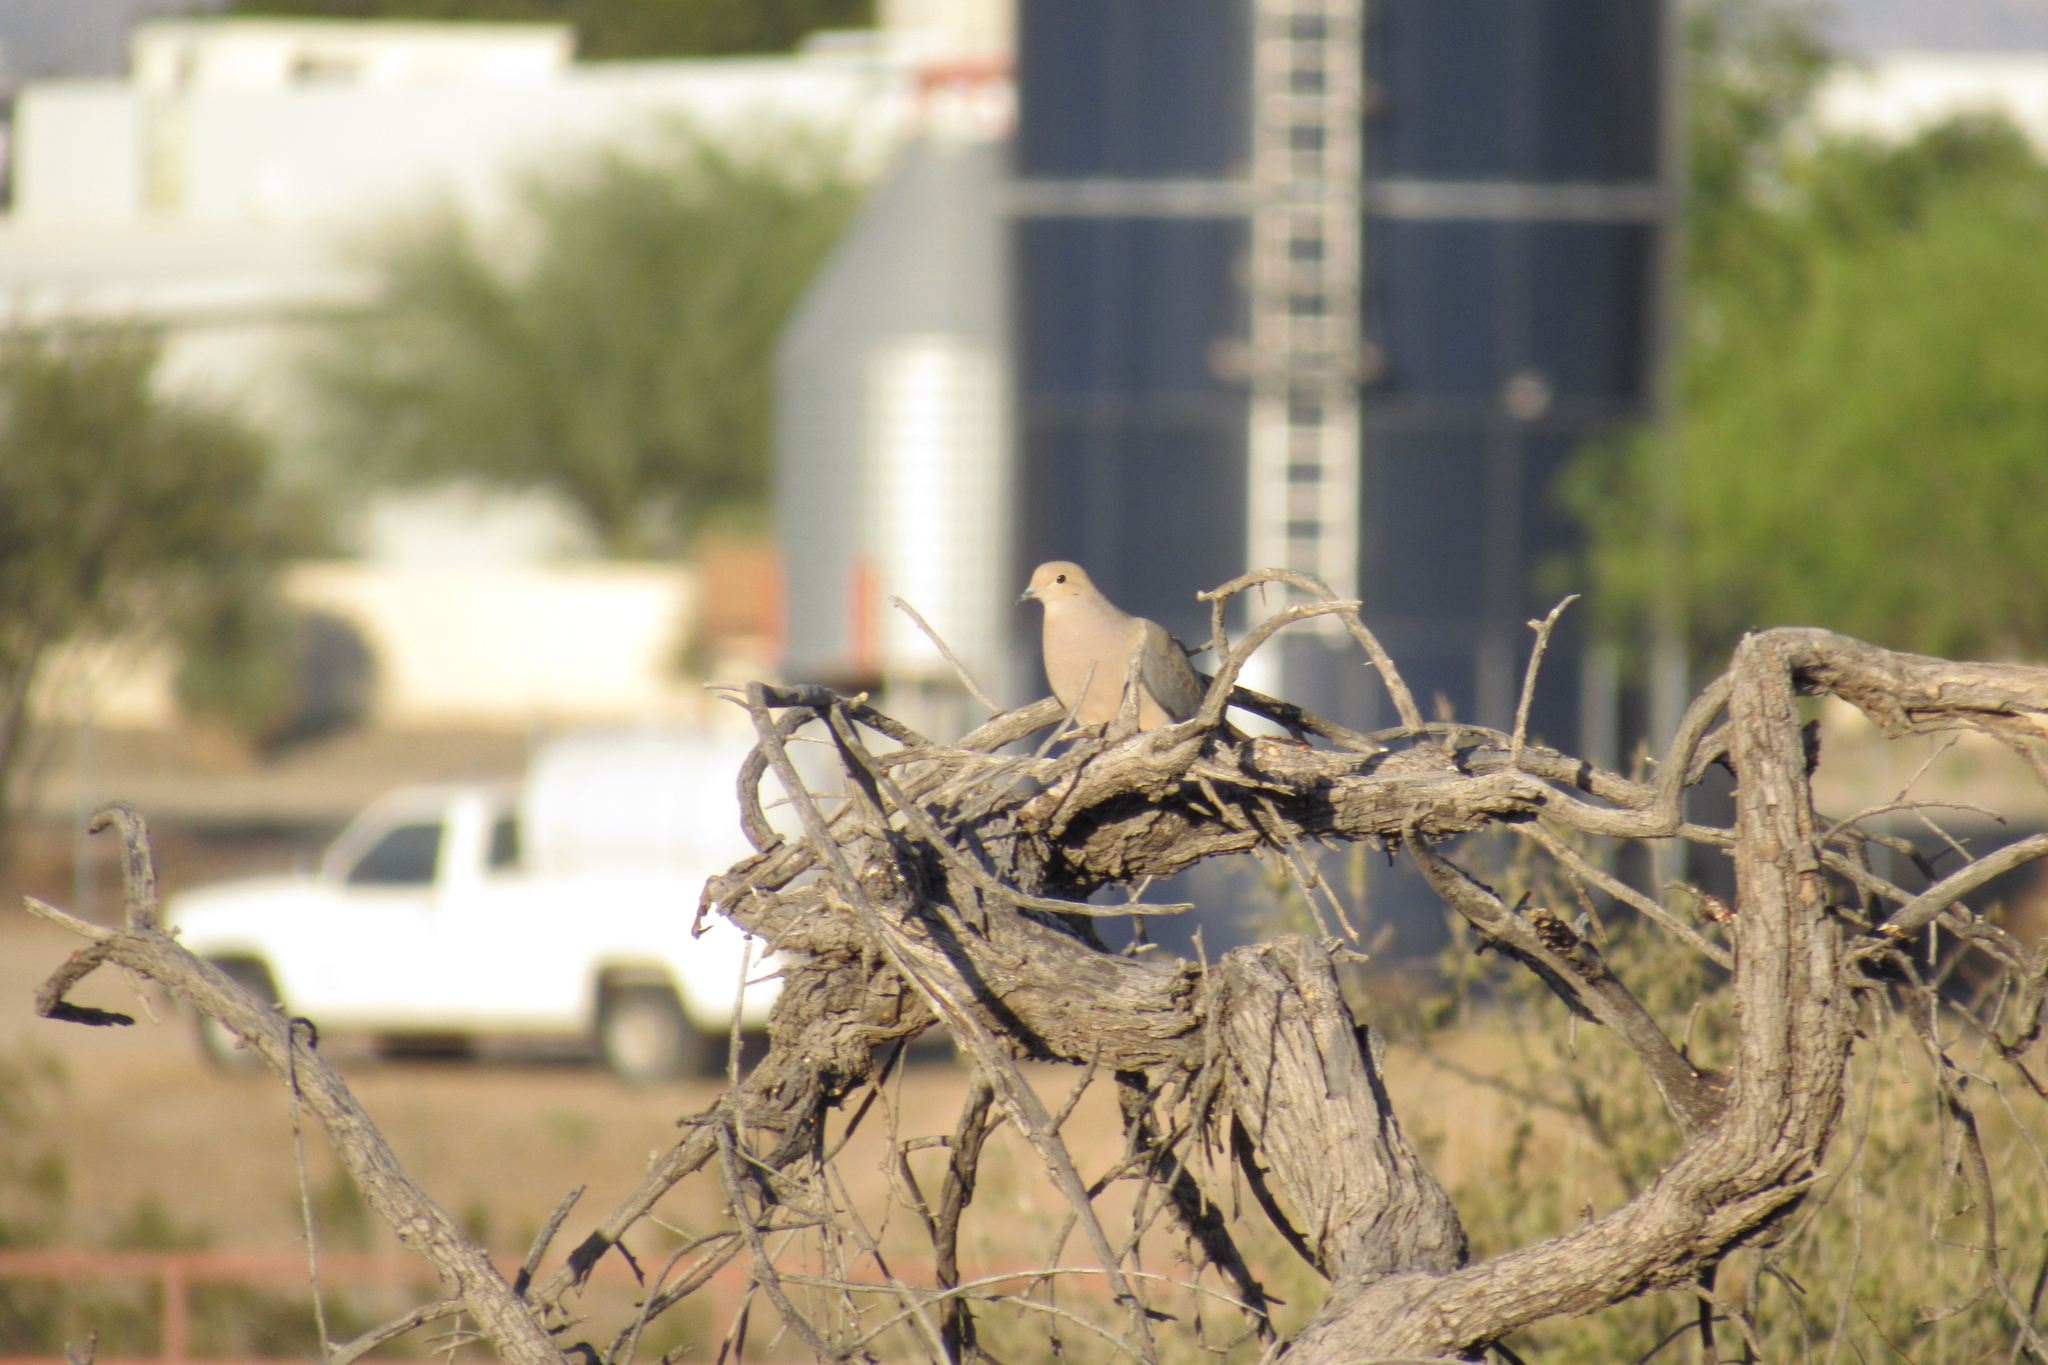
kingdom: Animalia
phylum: Chordata
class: Aves
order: Columbiformes
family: Columbidae
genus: Zenaida
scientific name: Zenaida macroura
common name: Mourning dove
